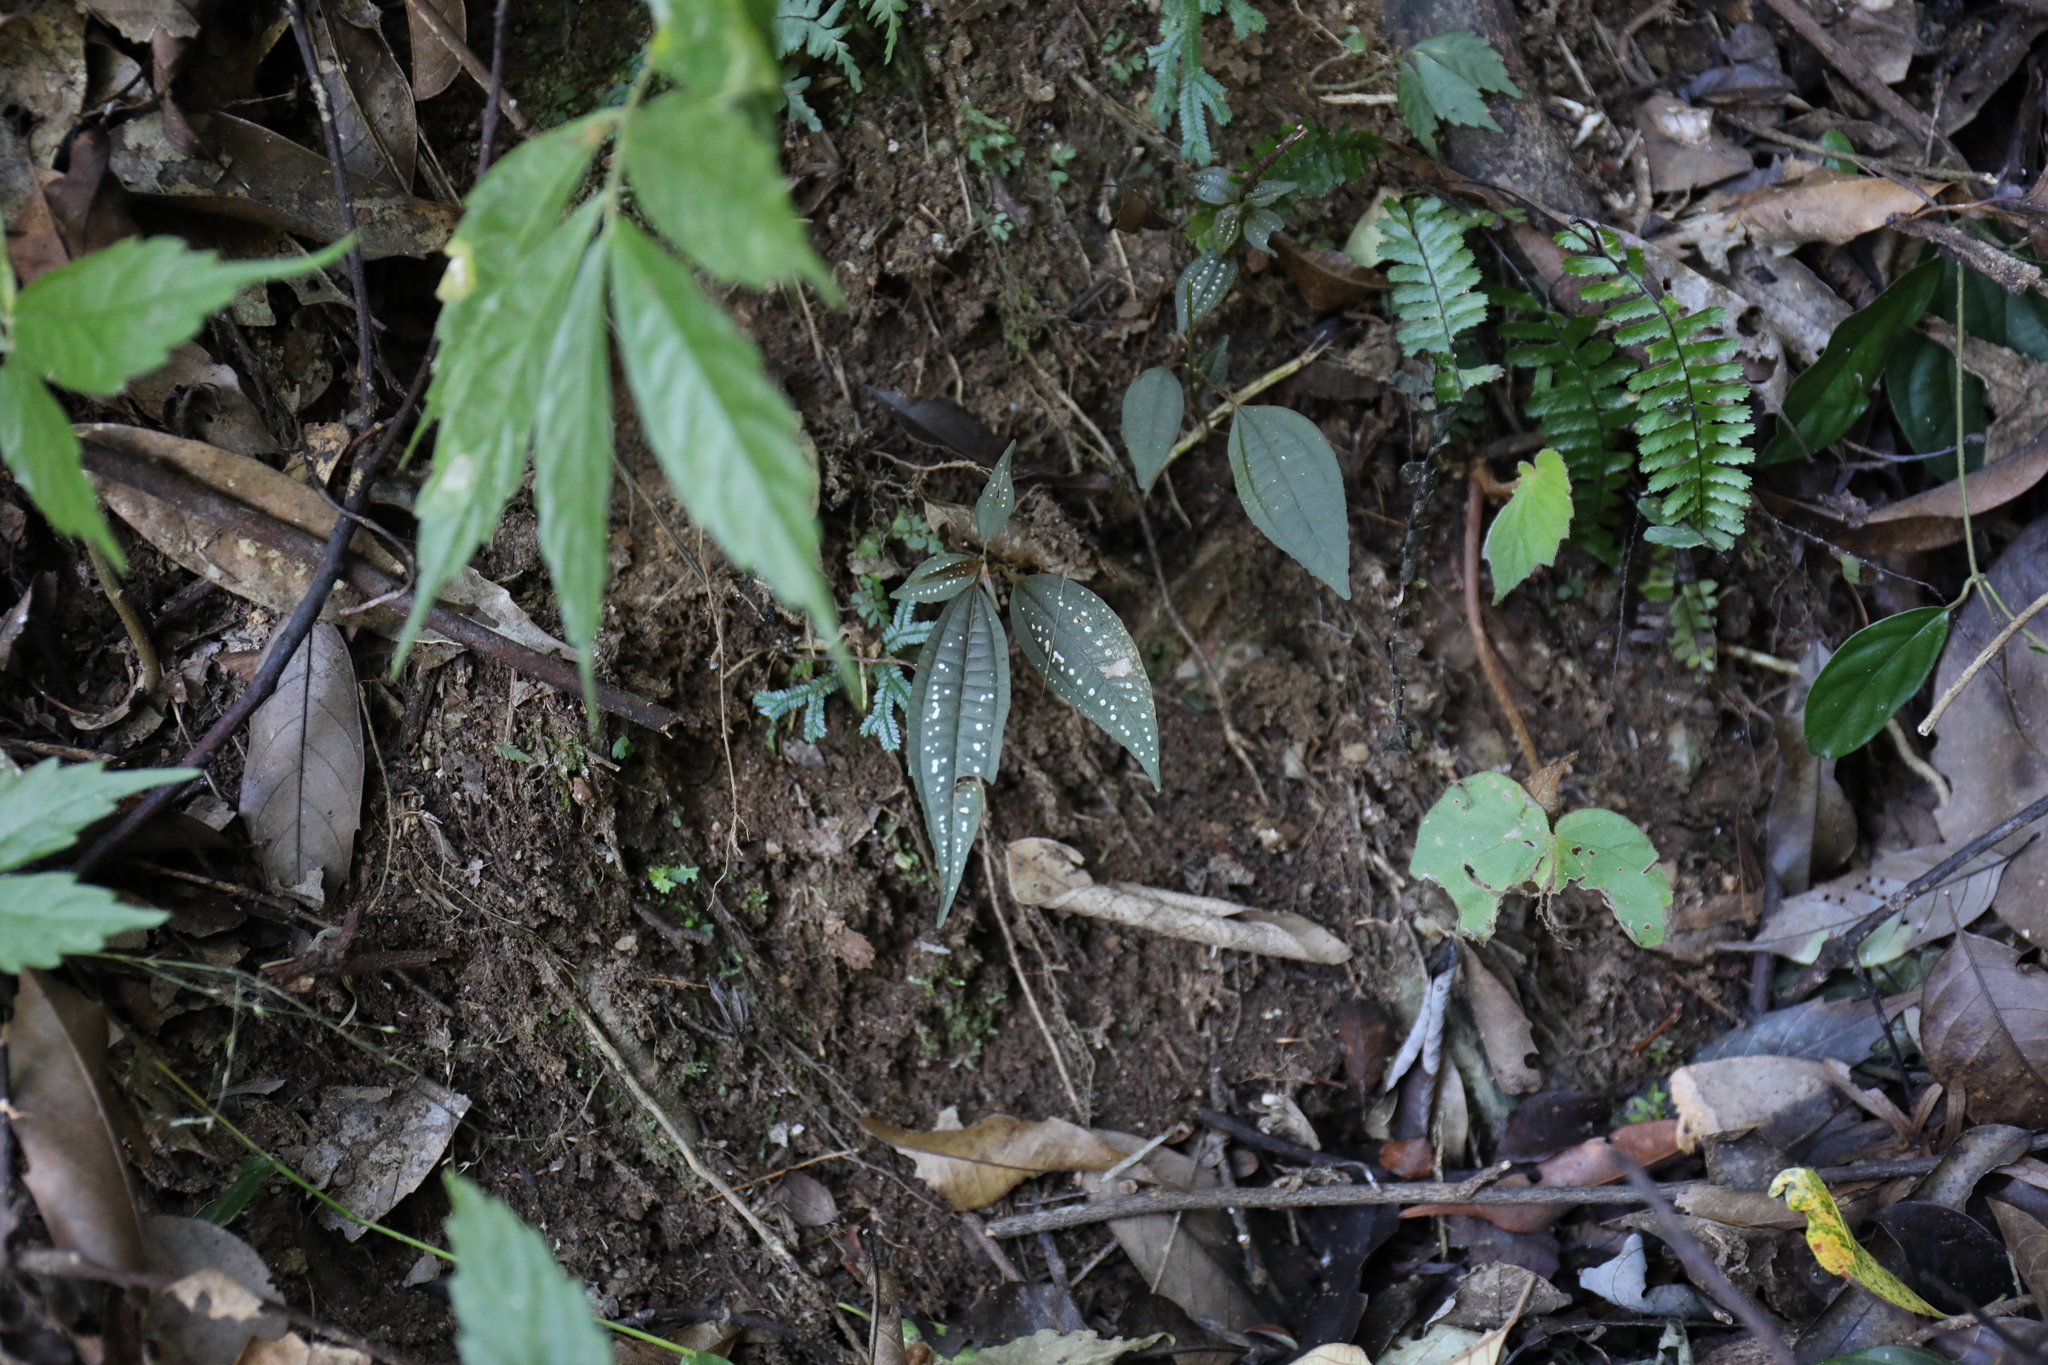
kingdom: Plantae
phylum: Tracheophyta
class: Magnoliopsida
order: Myrtales
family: Melastomataceae
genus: Blastus
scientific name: Blastus cochinchinensis
